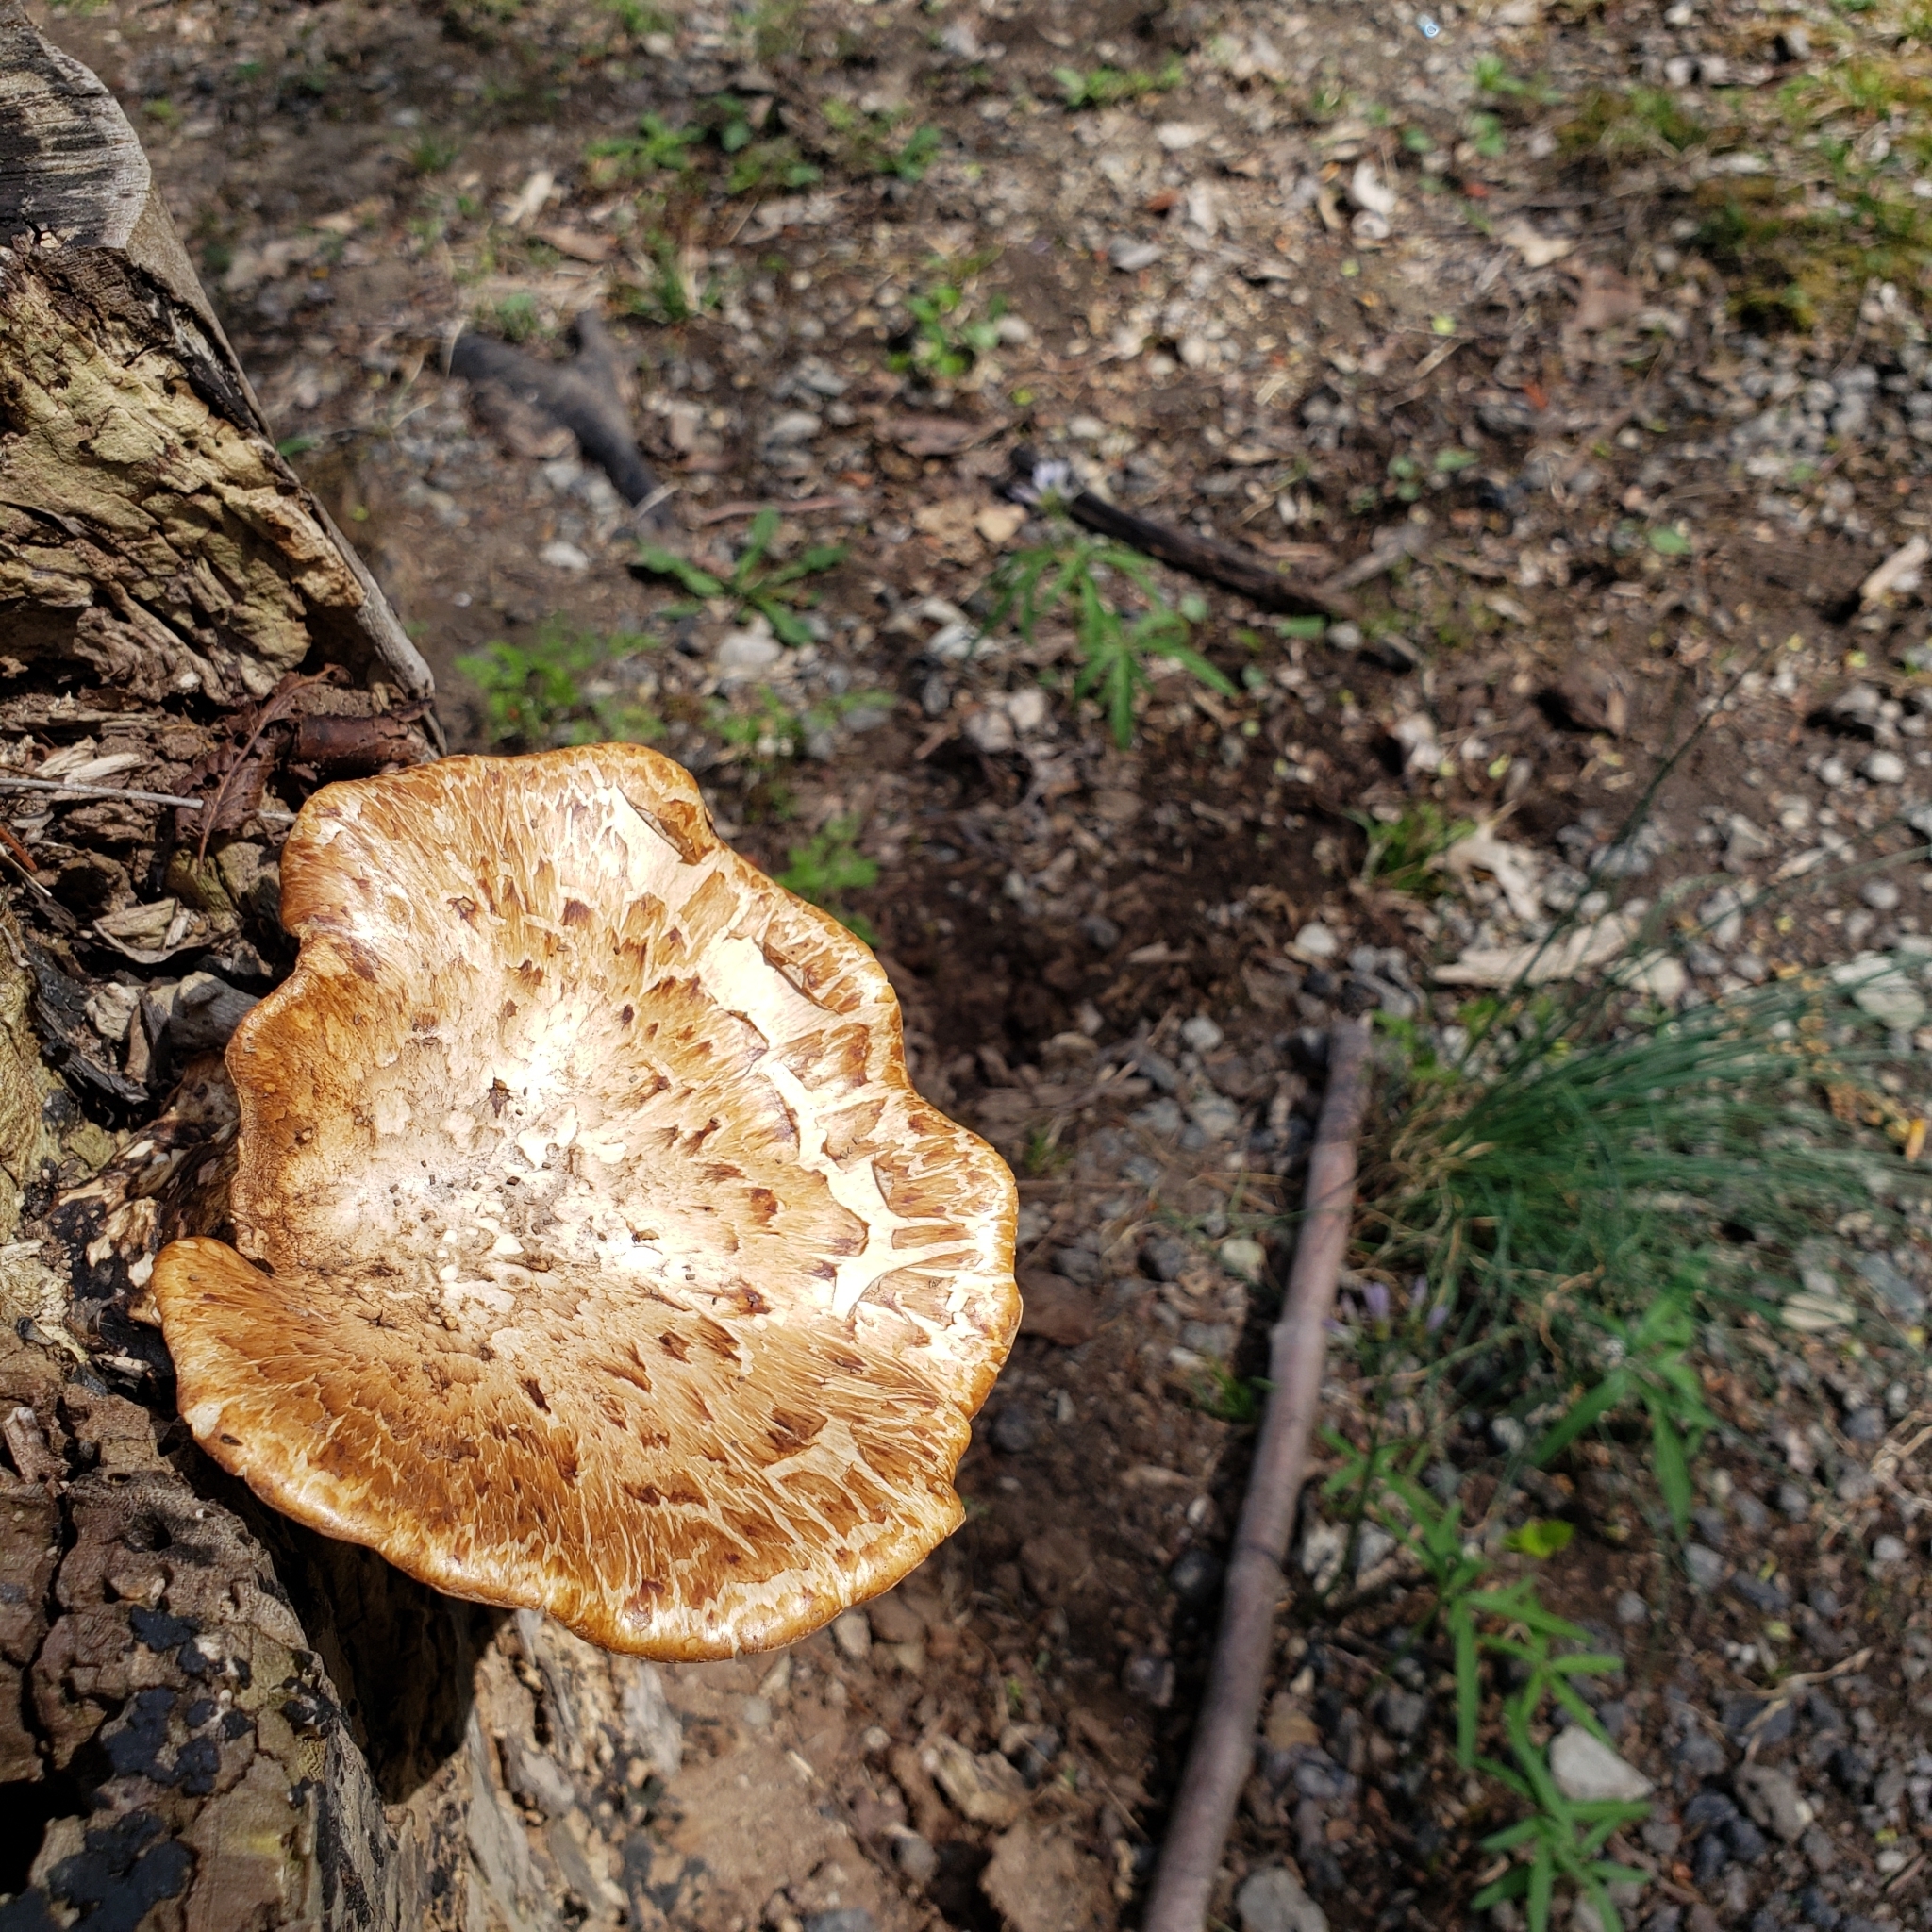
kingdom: Fungi
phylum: Basidiomycota
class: Agaricomycetes
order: Polyporales
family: Polyporaceae
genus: Cerioporus
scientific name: Cerioporus squamosus
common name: Dryad's saddle
